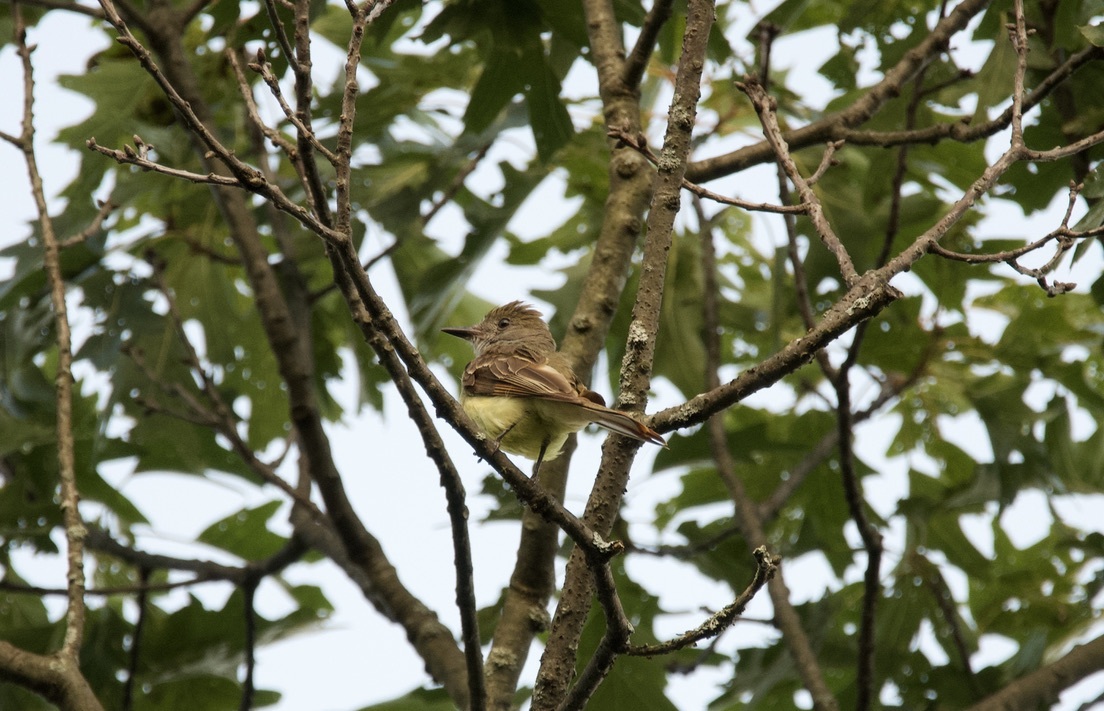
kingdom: Animalia
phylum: Chordata
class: Aves
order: Passeriformes
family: Tyrannidae
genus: Myiarchus
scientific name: Myiarchus crinitus
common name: Great crested flycatcher
